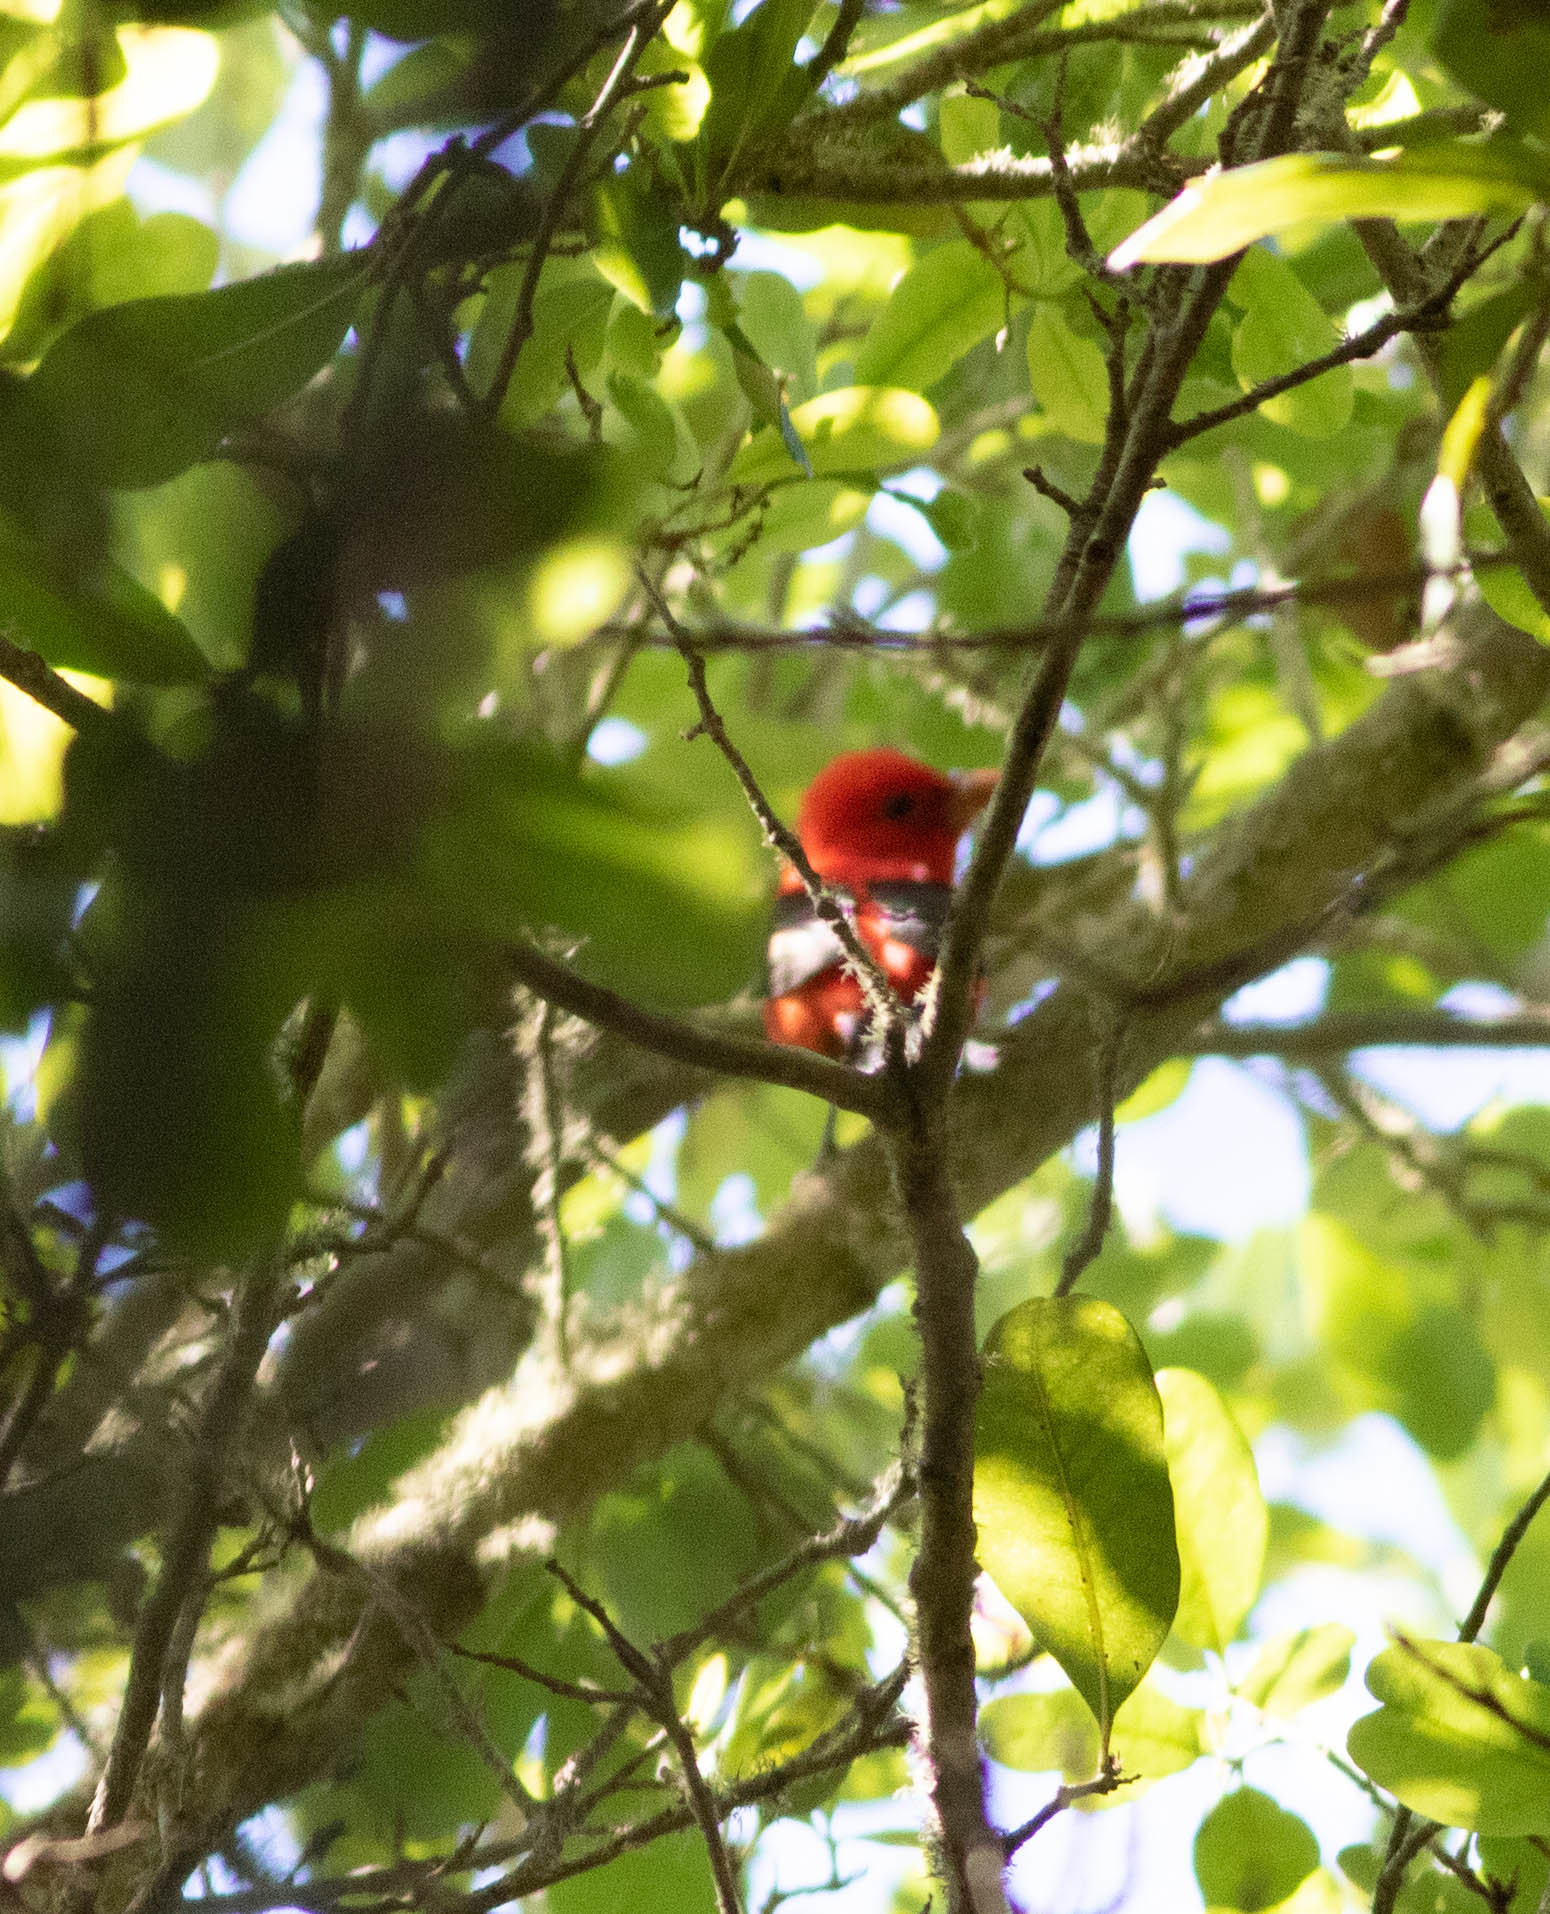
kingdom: Animalia
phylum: Chordata
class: Aves
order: Passeriformes
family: Cardinalidae
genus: Piranga
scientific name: Piranga olivacea
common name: Scarlet tanager
